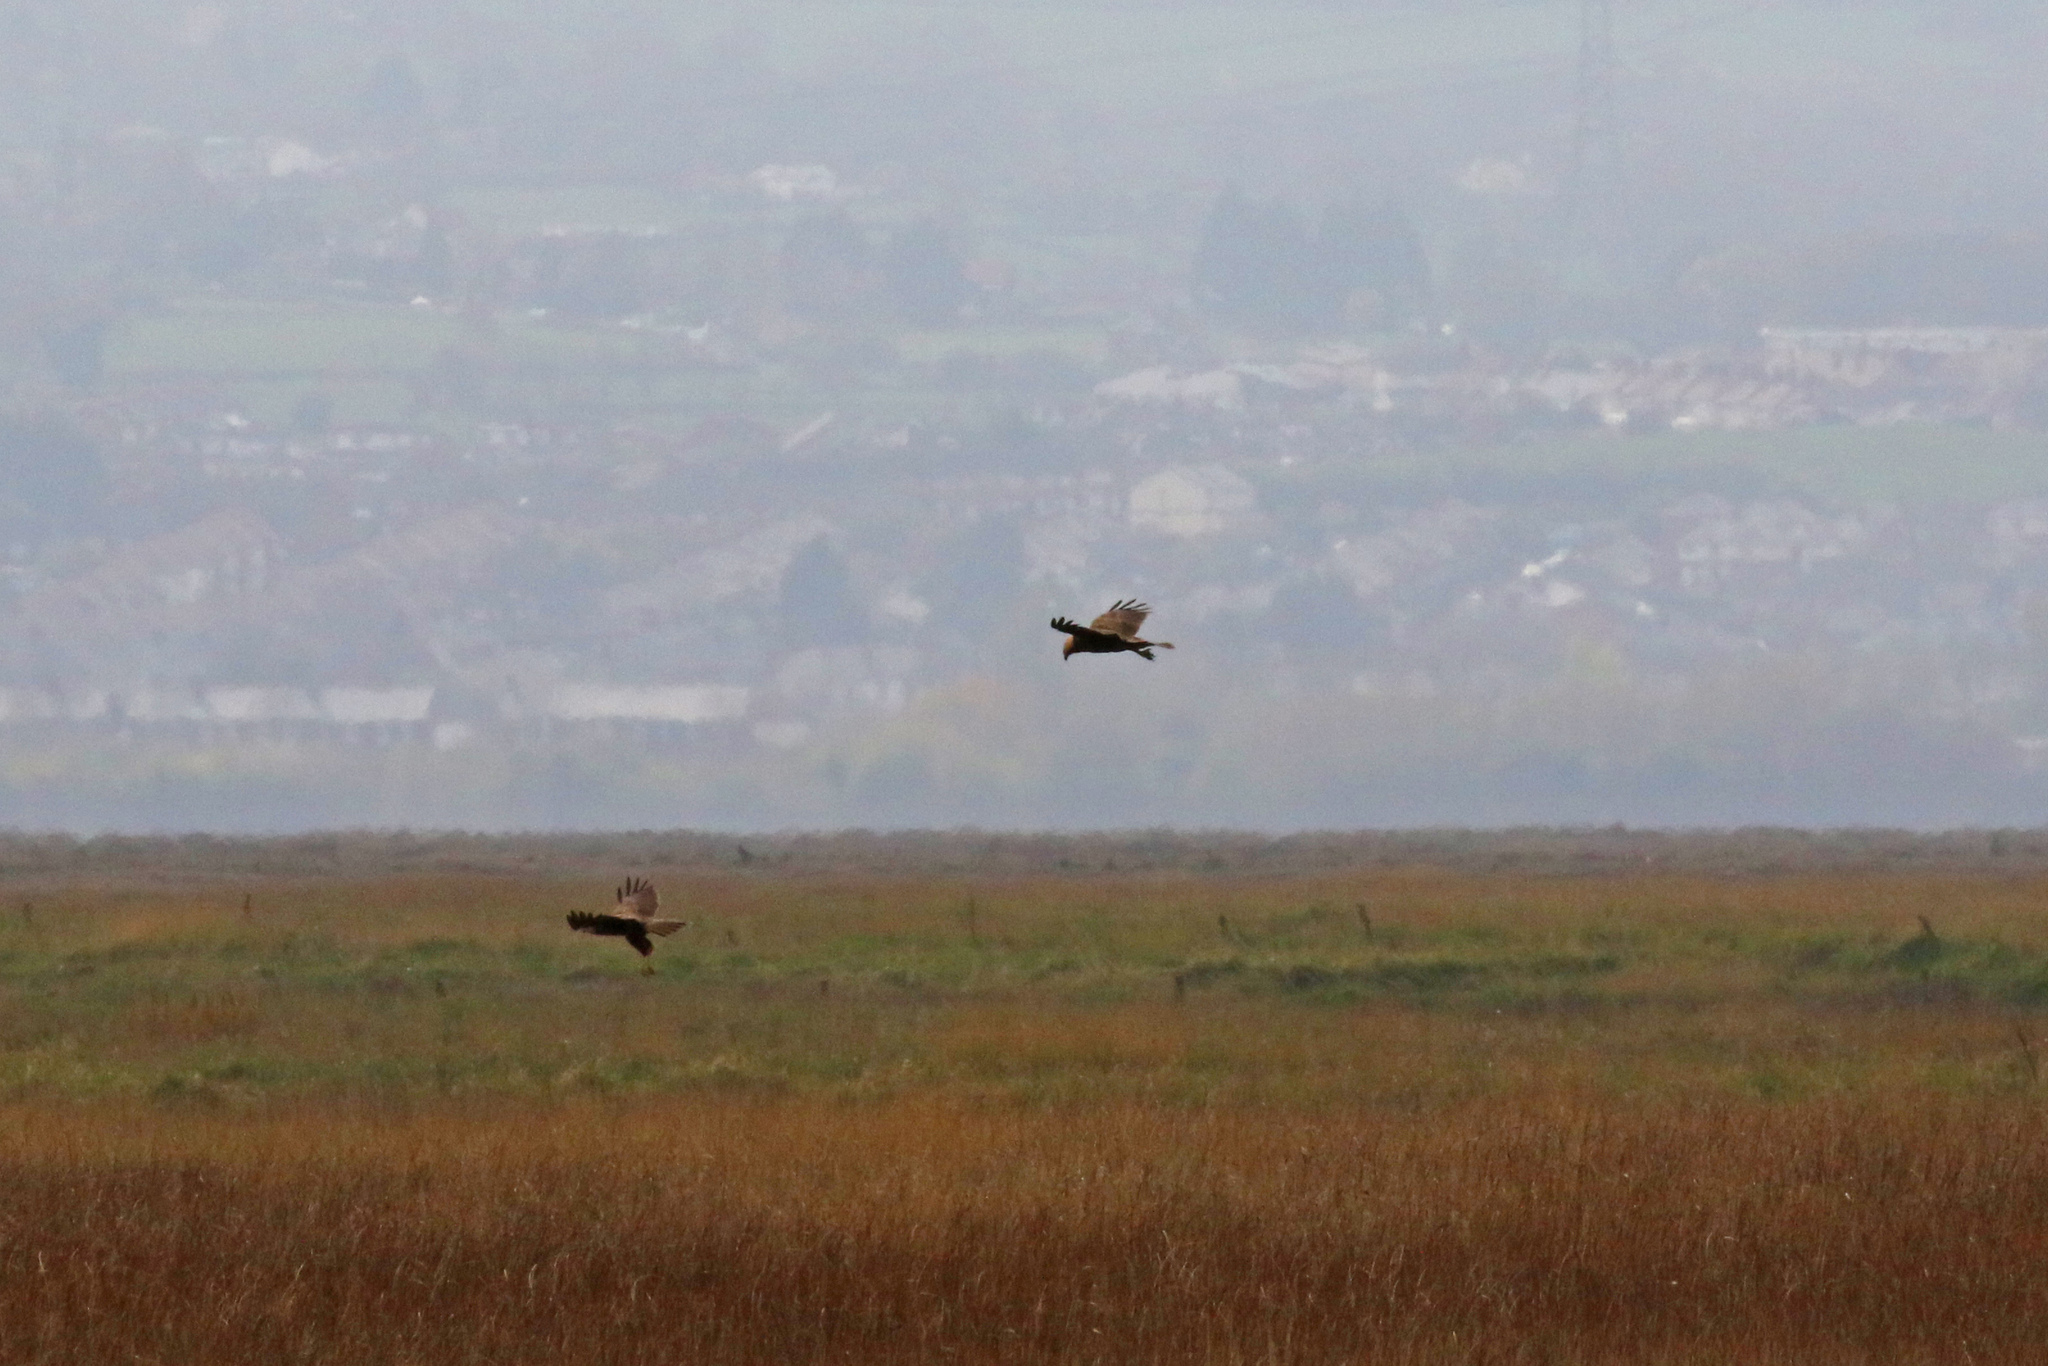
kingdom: Animalia
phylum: Chordata
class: Aves
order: Accipitriformes
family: Accipitridae
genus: Circus
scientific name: Circus aeruginosus
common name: Western marsh harrier
